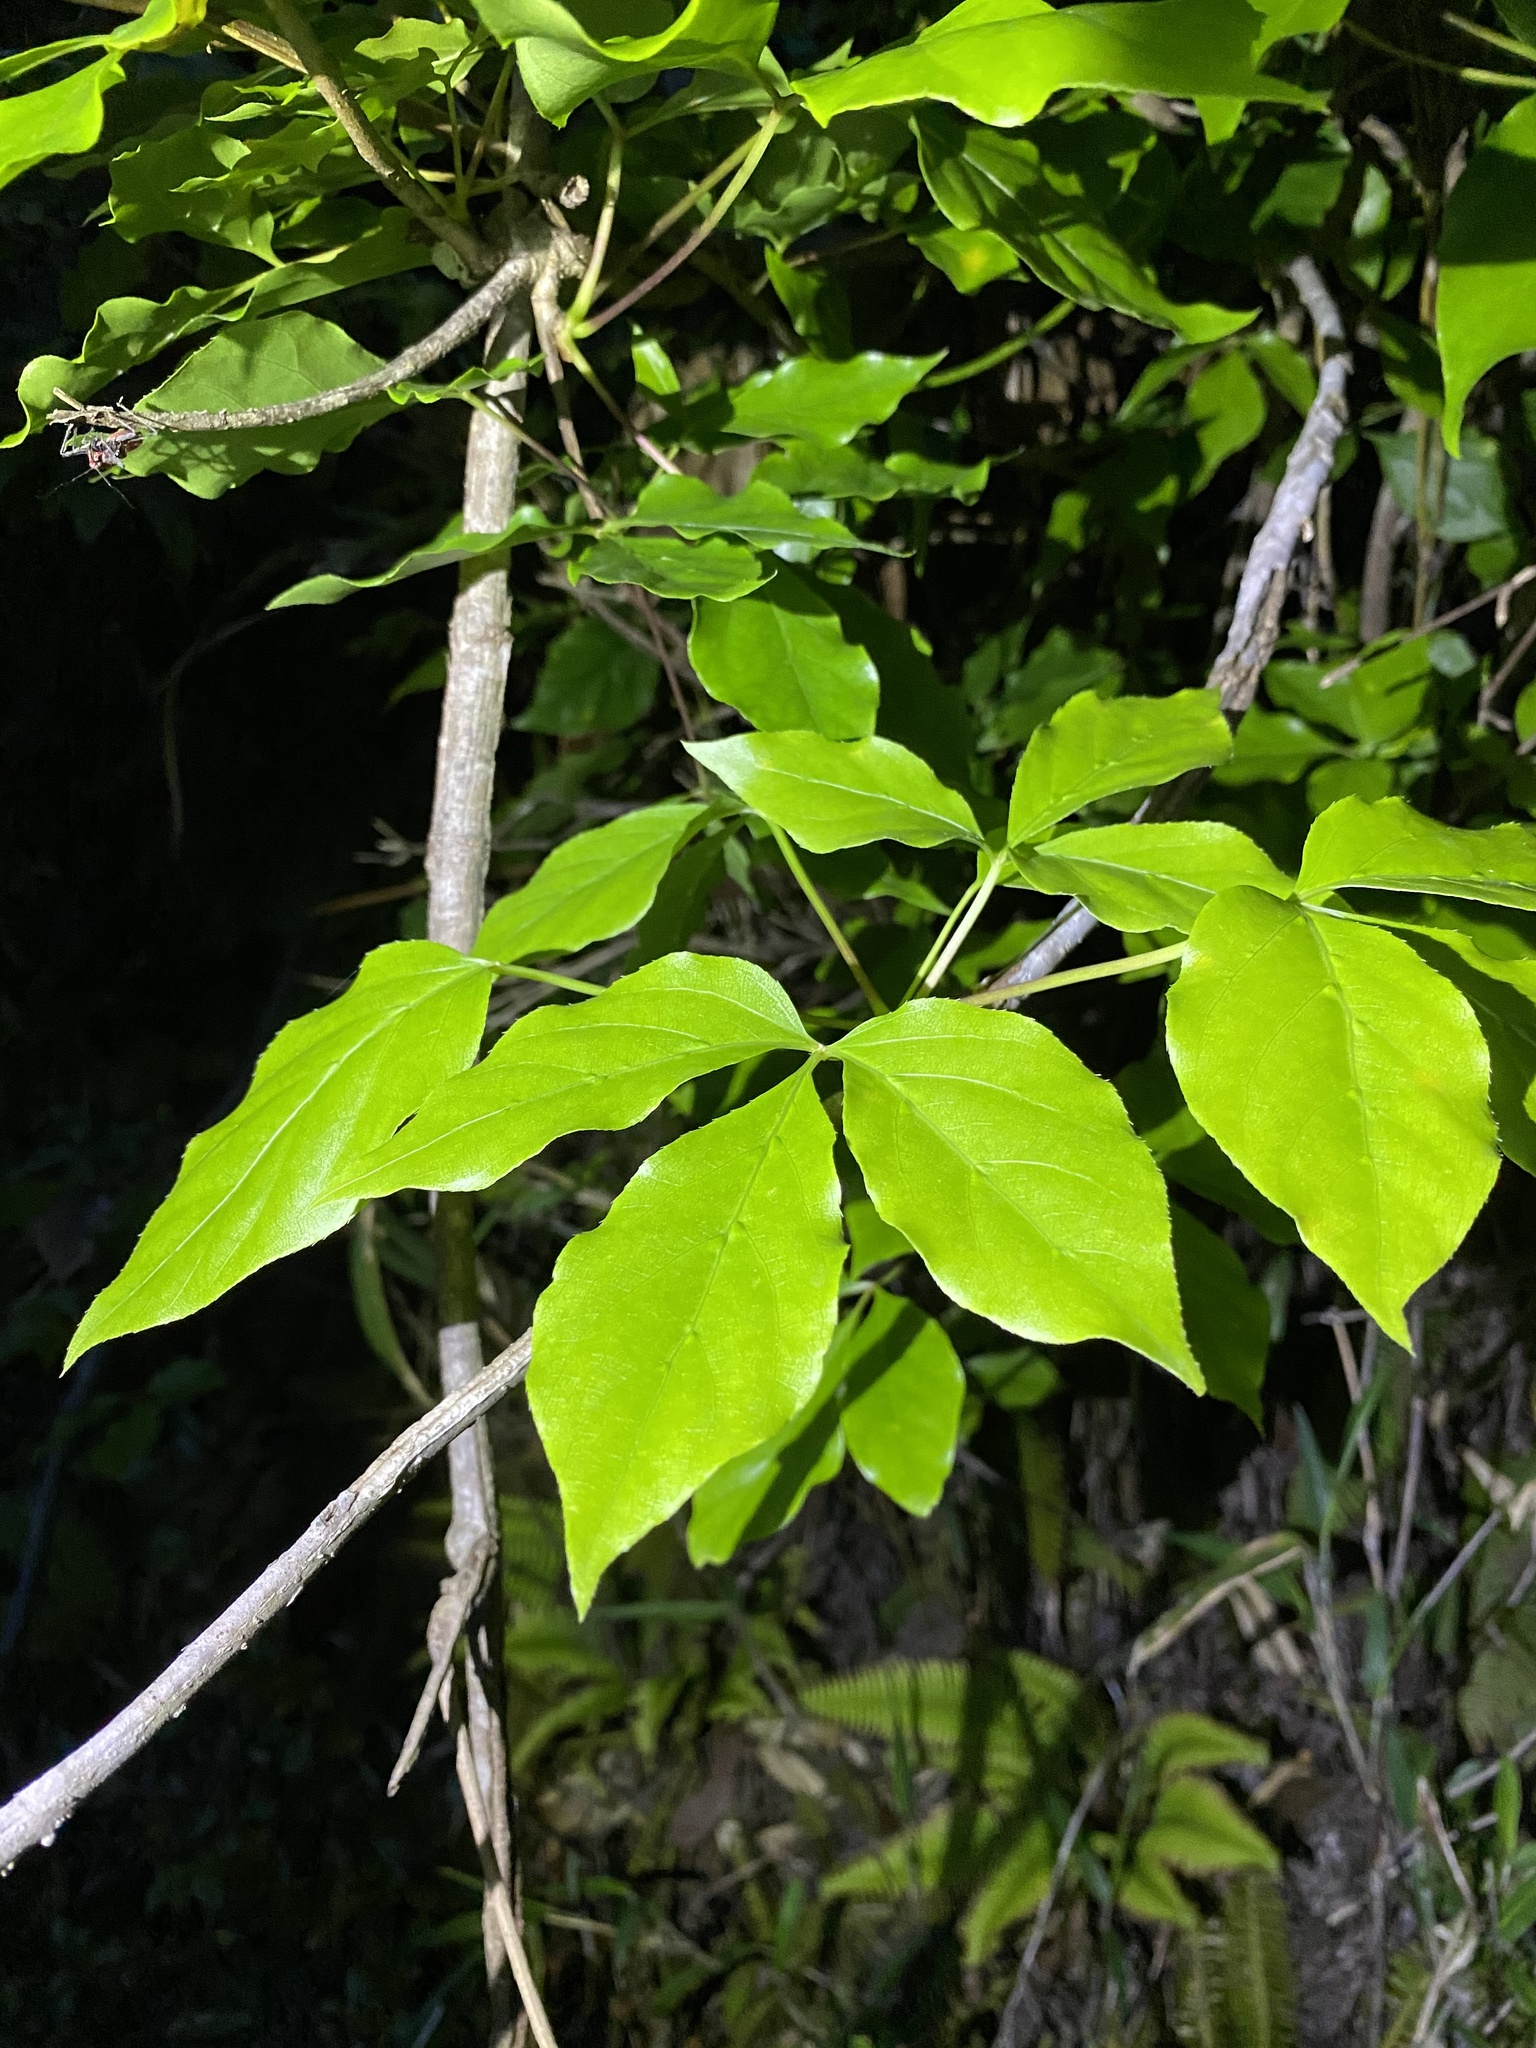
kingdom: Plantae
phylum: Tracheophyta
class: Magnoliopsida
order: Apiales
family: Araliaceae
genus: Gamblea
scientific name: Gamblea innovans
